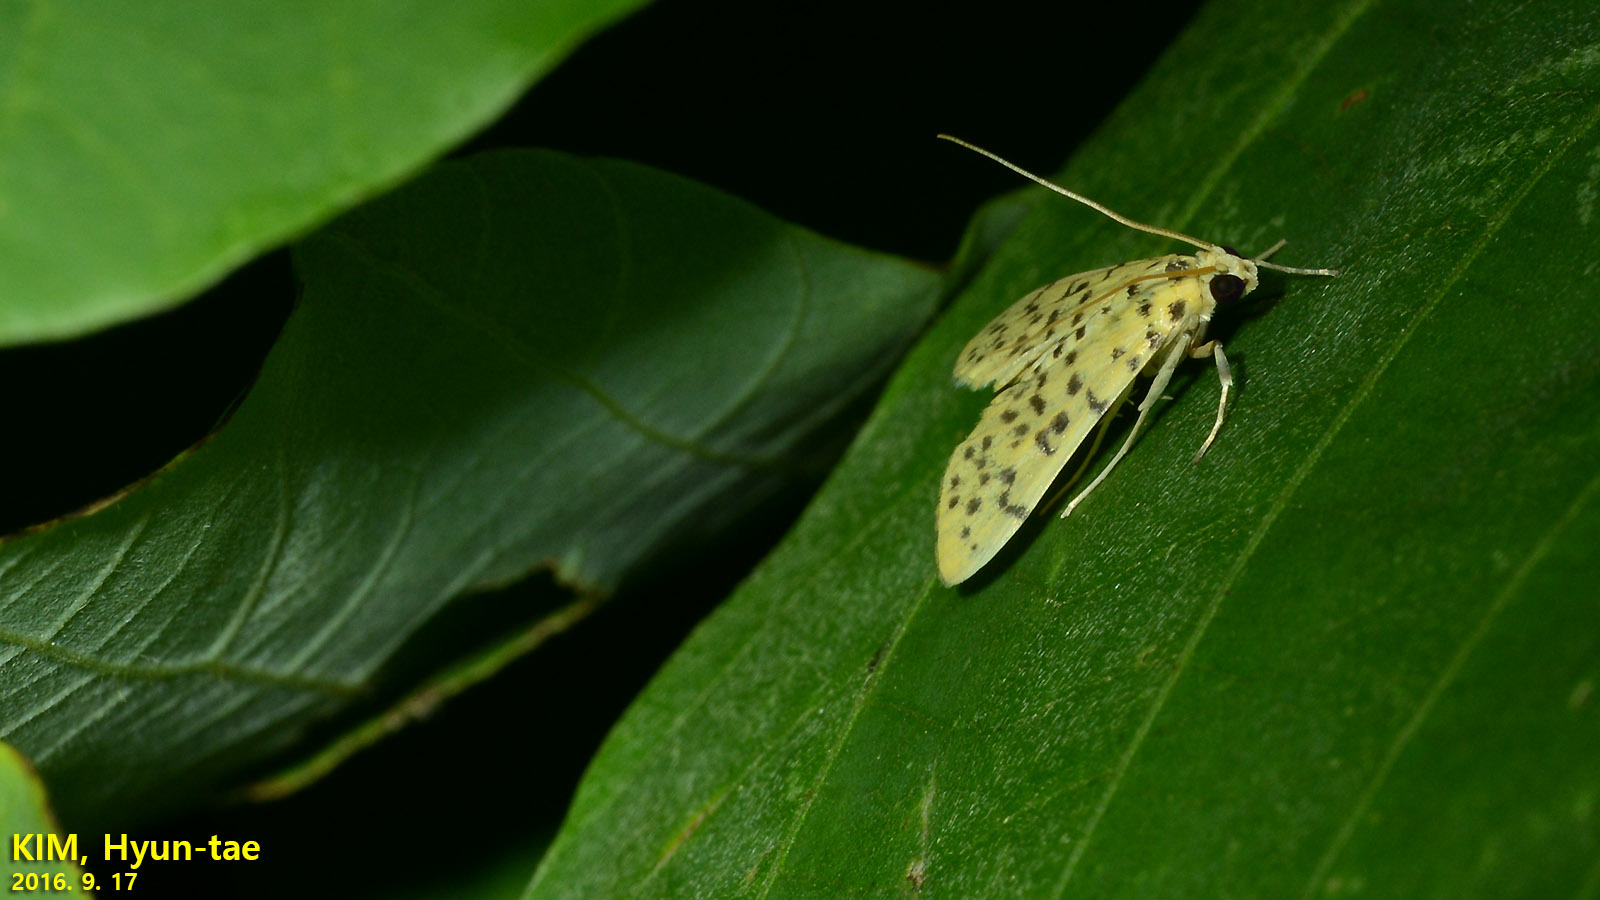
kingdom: Animalia
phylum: Arthropoda
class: Insecta
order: Lepidoptera
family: Crambidae
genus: Conogethes
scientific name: Conogethes punctiferalis
